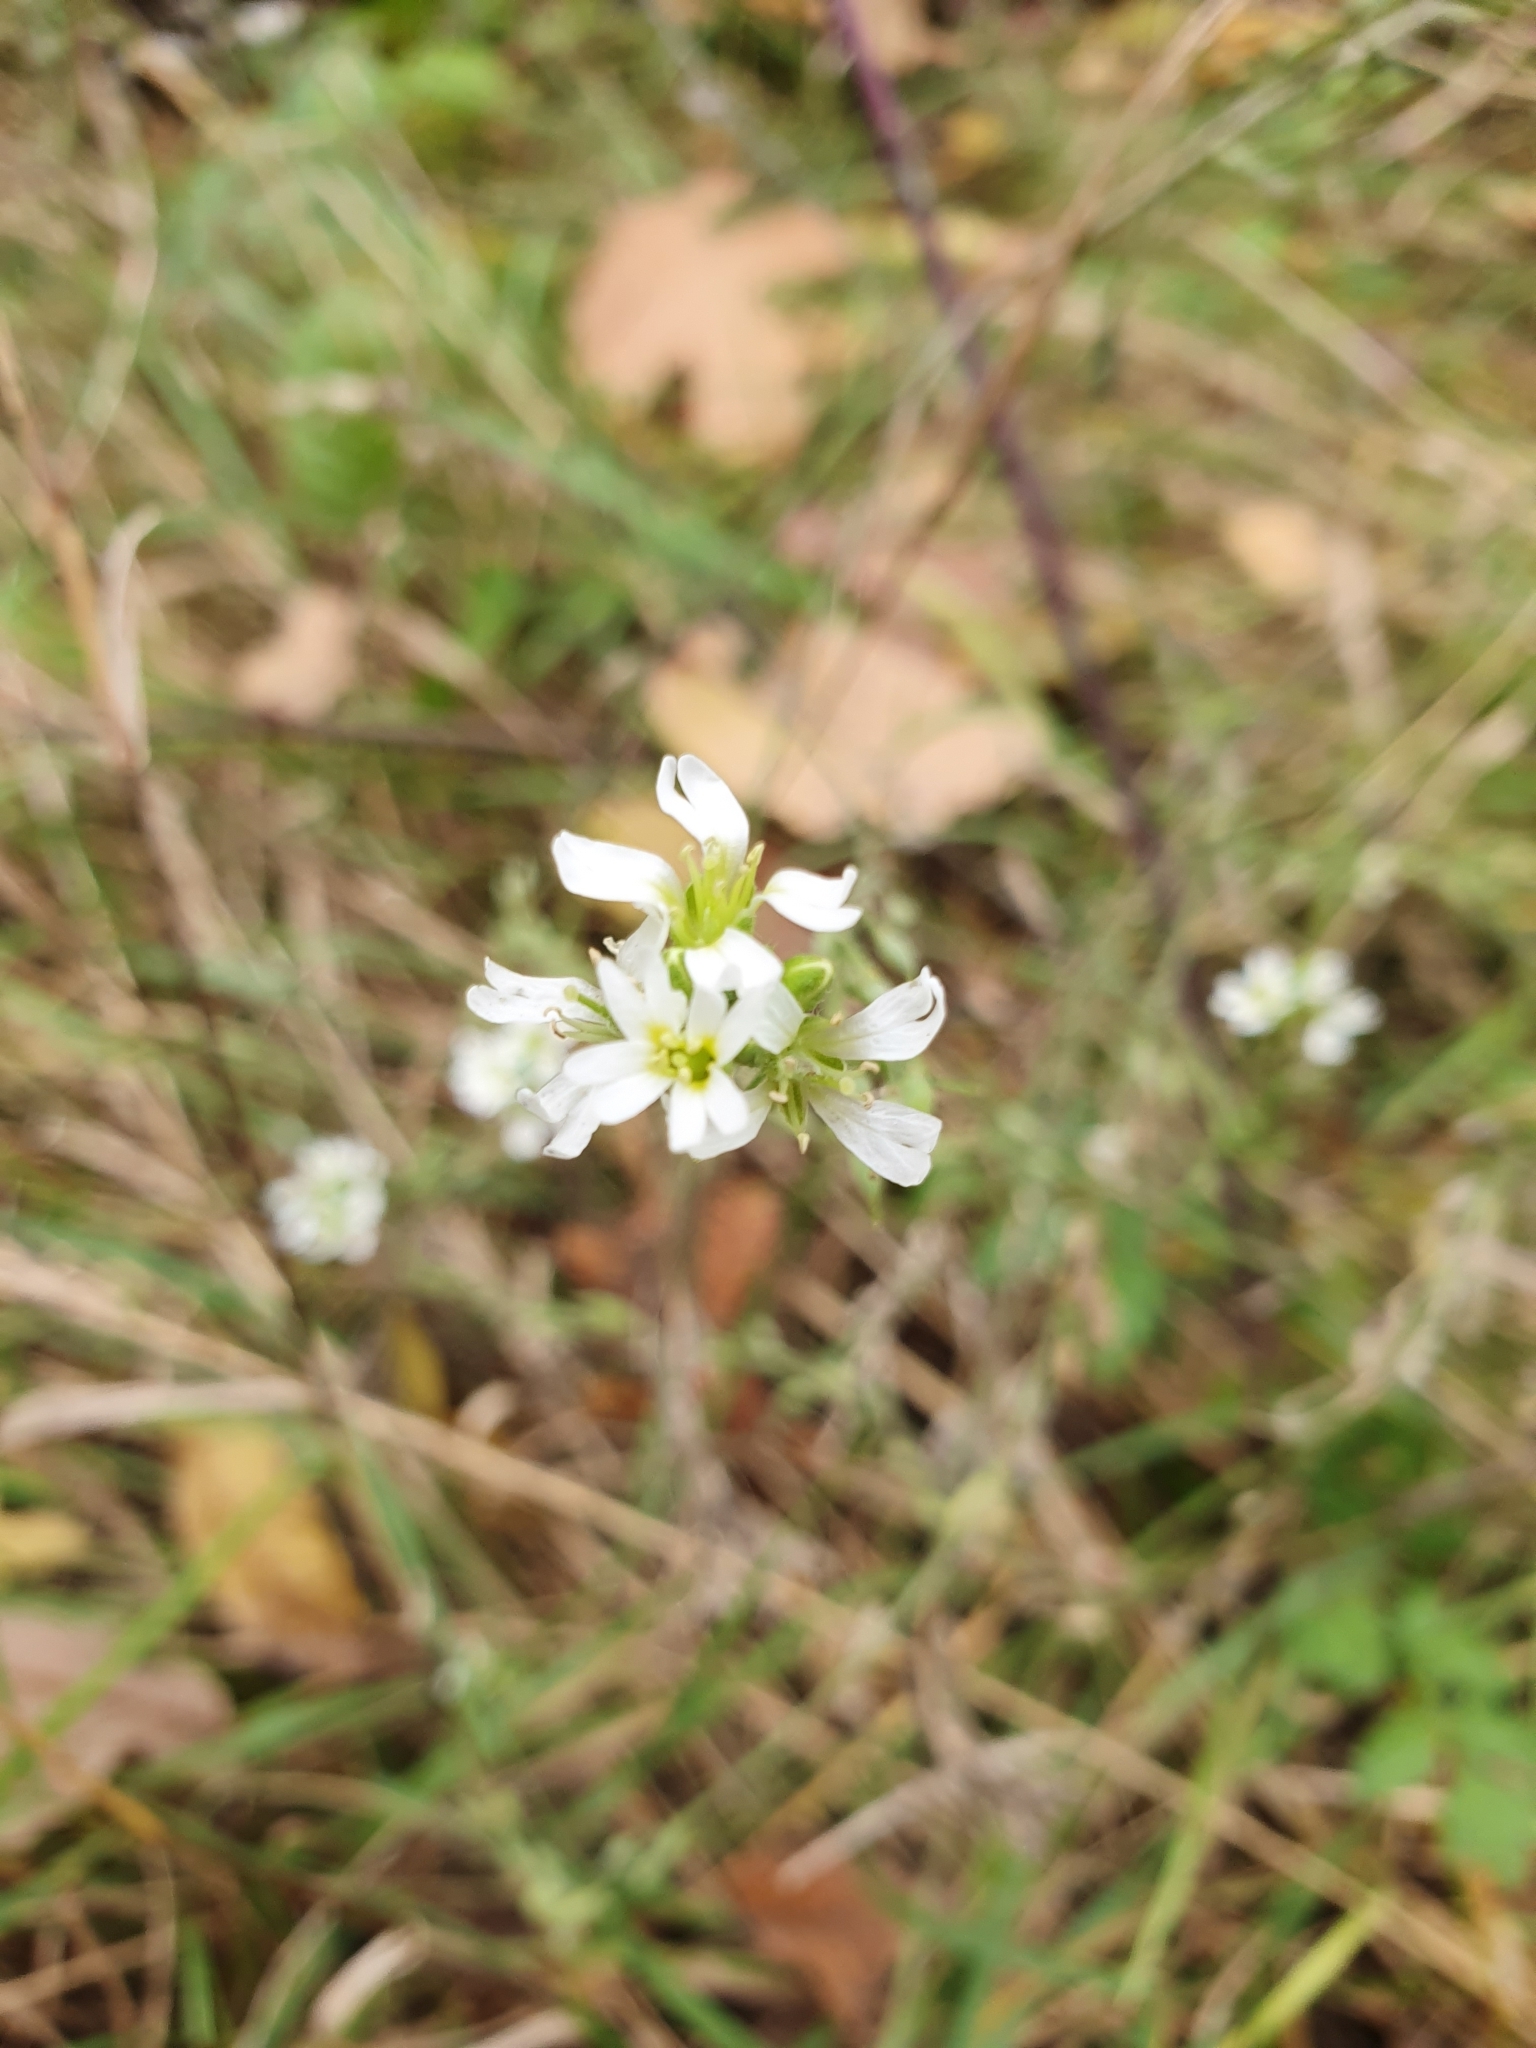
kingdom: Plantae
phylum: Tracheophyta
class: Magnoliopsida
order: Brassicales
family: Brassicaceae
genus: Berteroa
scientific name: Berteroa incana
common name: Hoary alison
